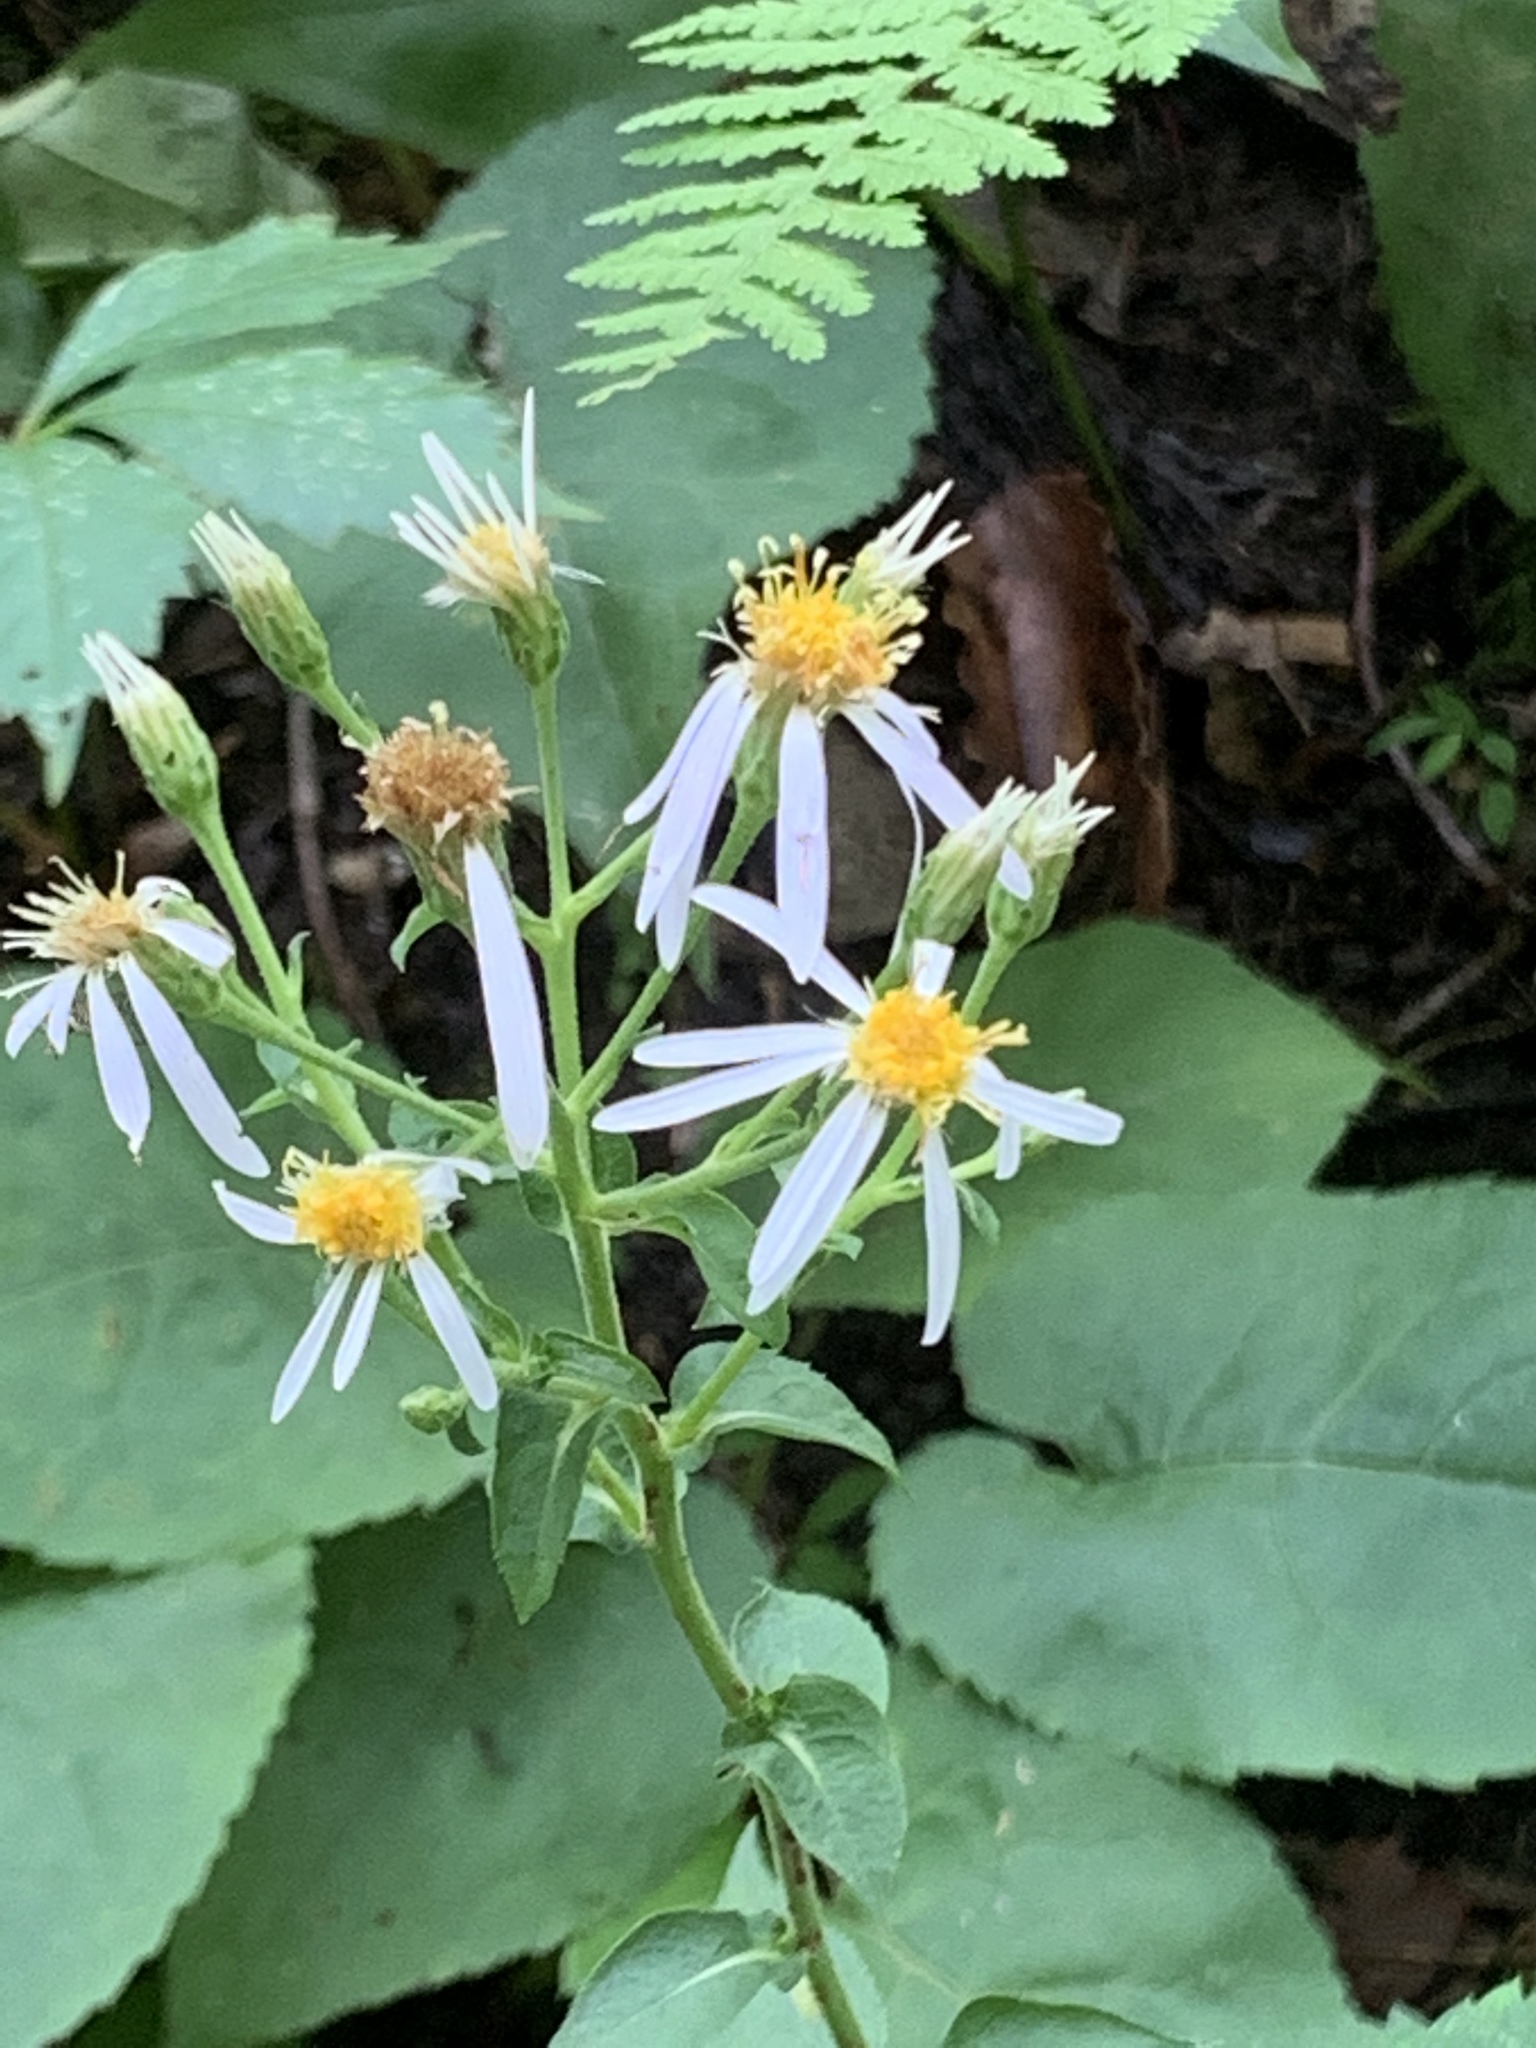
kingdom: Plantae
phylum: Tracheophyta
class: Magnoliopsida
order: Asterales
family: Asteraceae
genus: Eurybia
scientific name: Eurybia macrophylla
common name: Big-leaved aster
